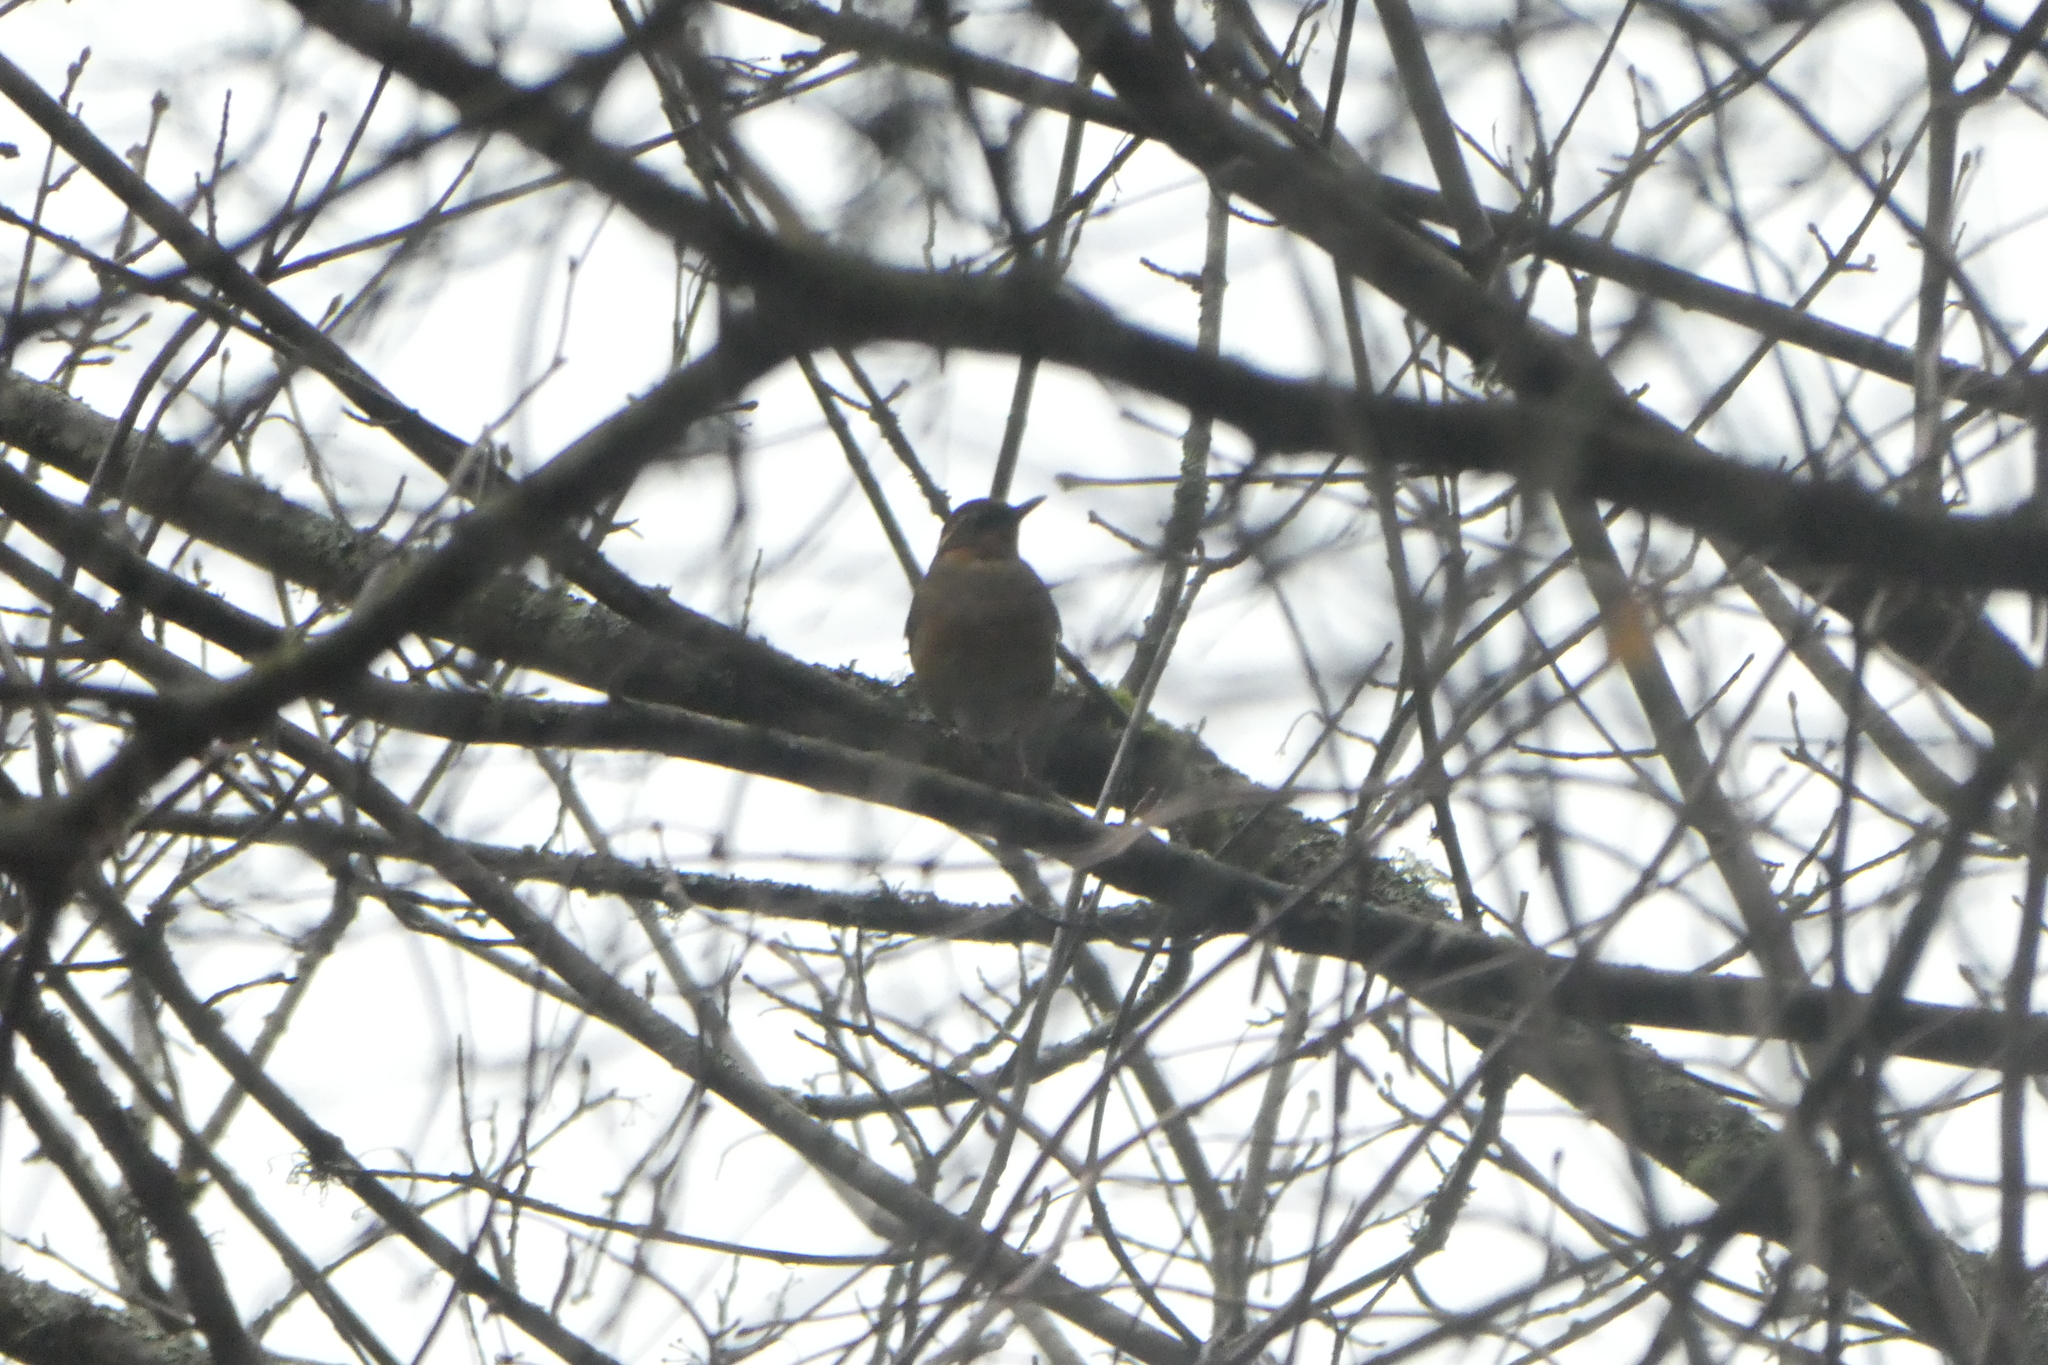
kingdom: Animalia
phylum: Chordata
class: Aves
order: Passeriformes
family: Turdidae
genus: Ixoreus
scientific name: Ixoreus naevius
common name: Varied thrush
